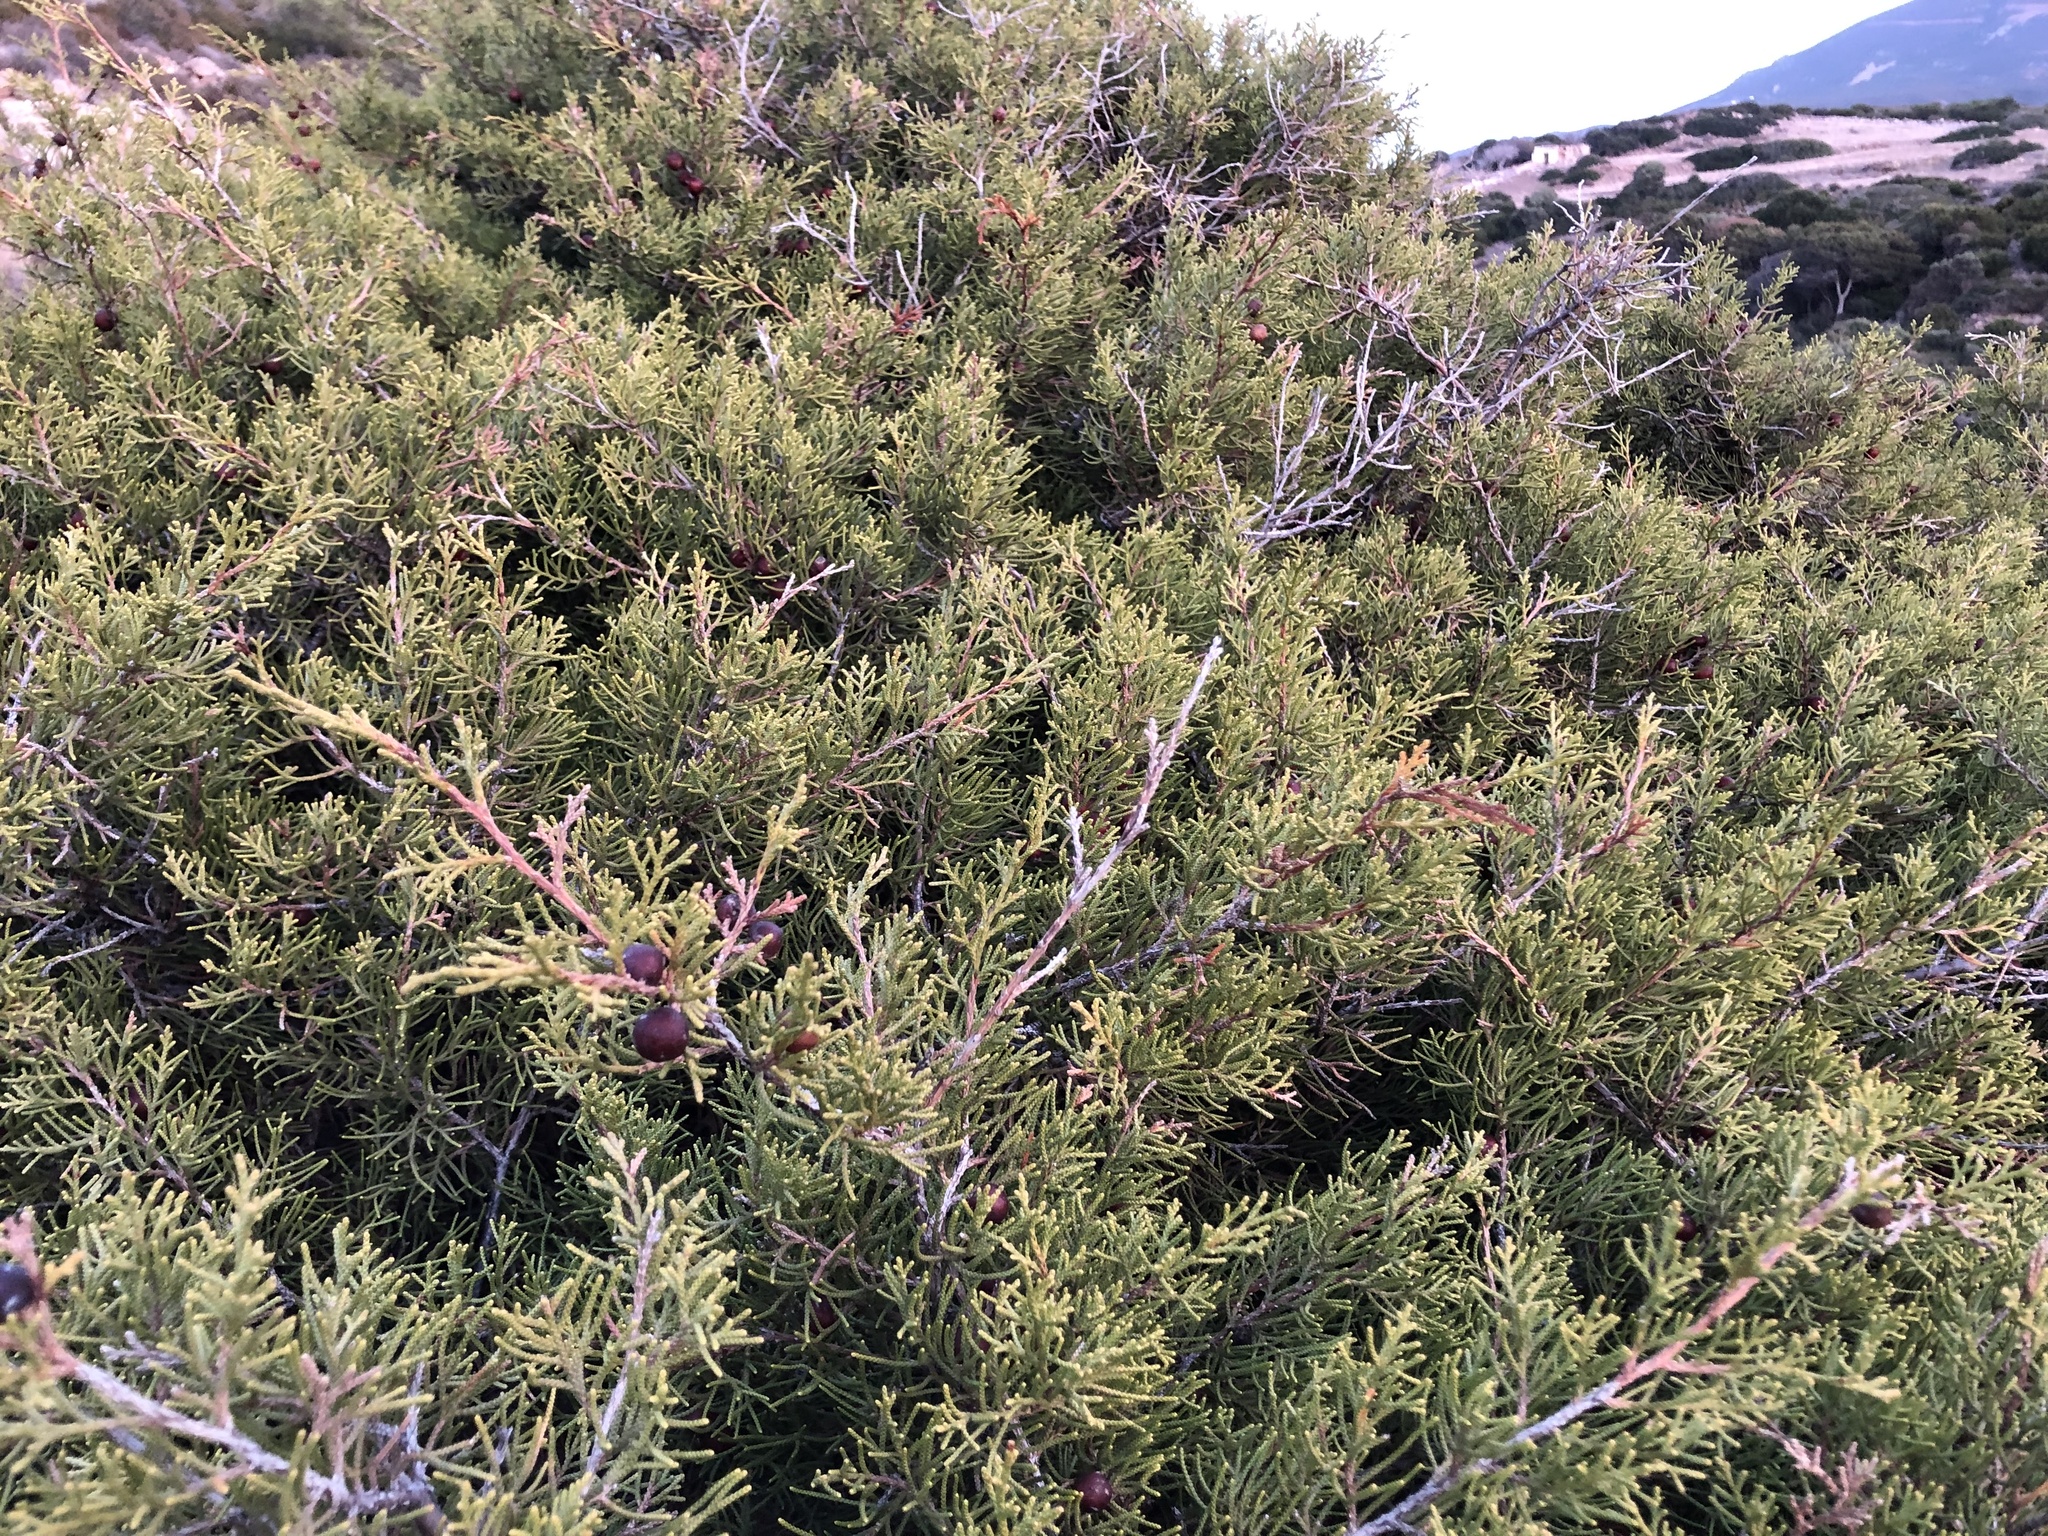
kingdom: Plantae
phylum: Tracheophyta
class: Pinopsida
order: Pinales
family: Cupressaceae
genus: Juniperus
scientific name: Juniperus phoenicea
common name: Phoenician juniper
